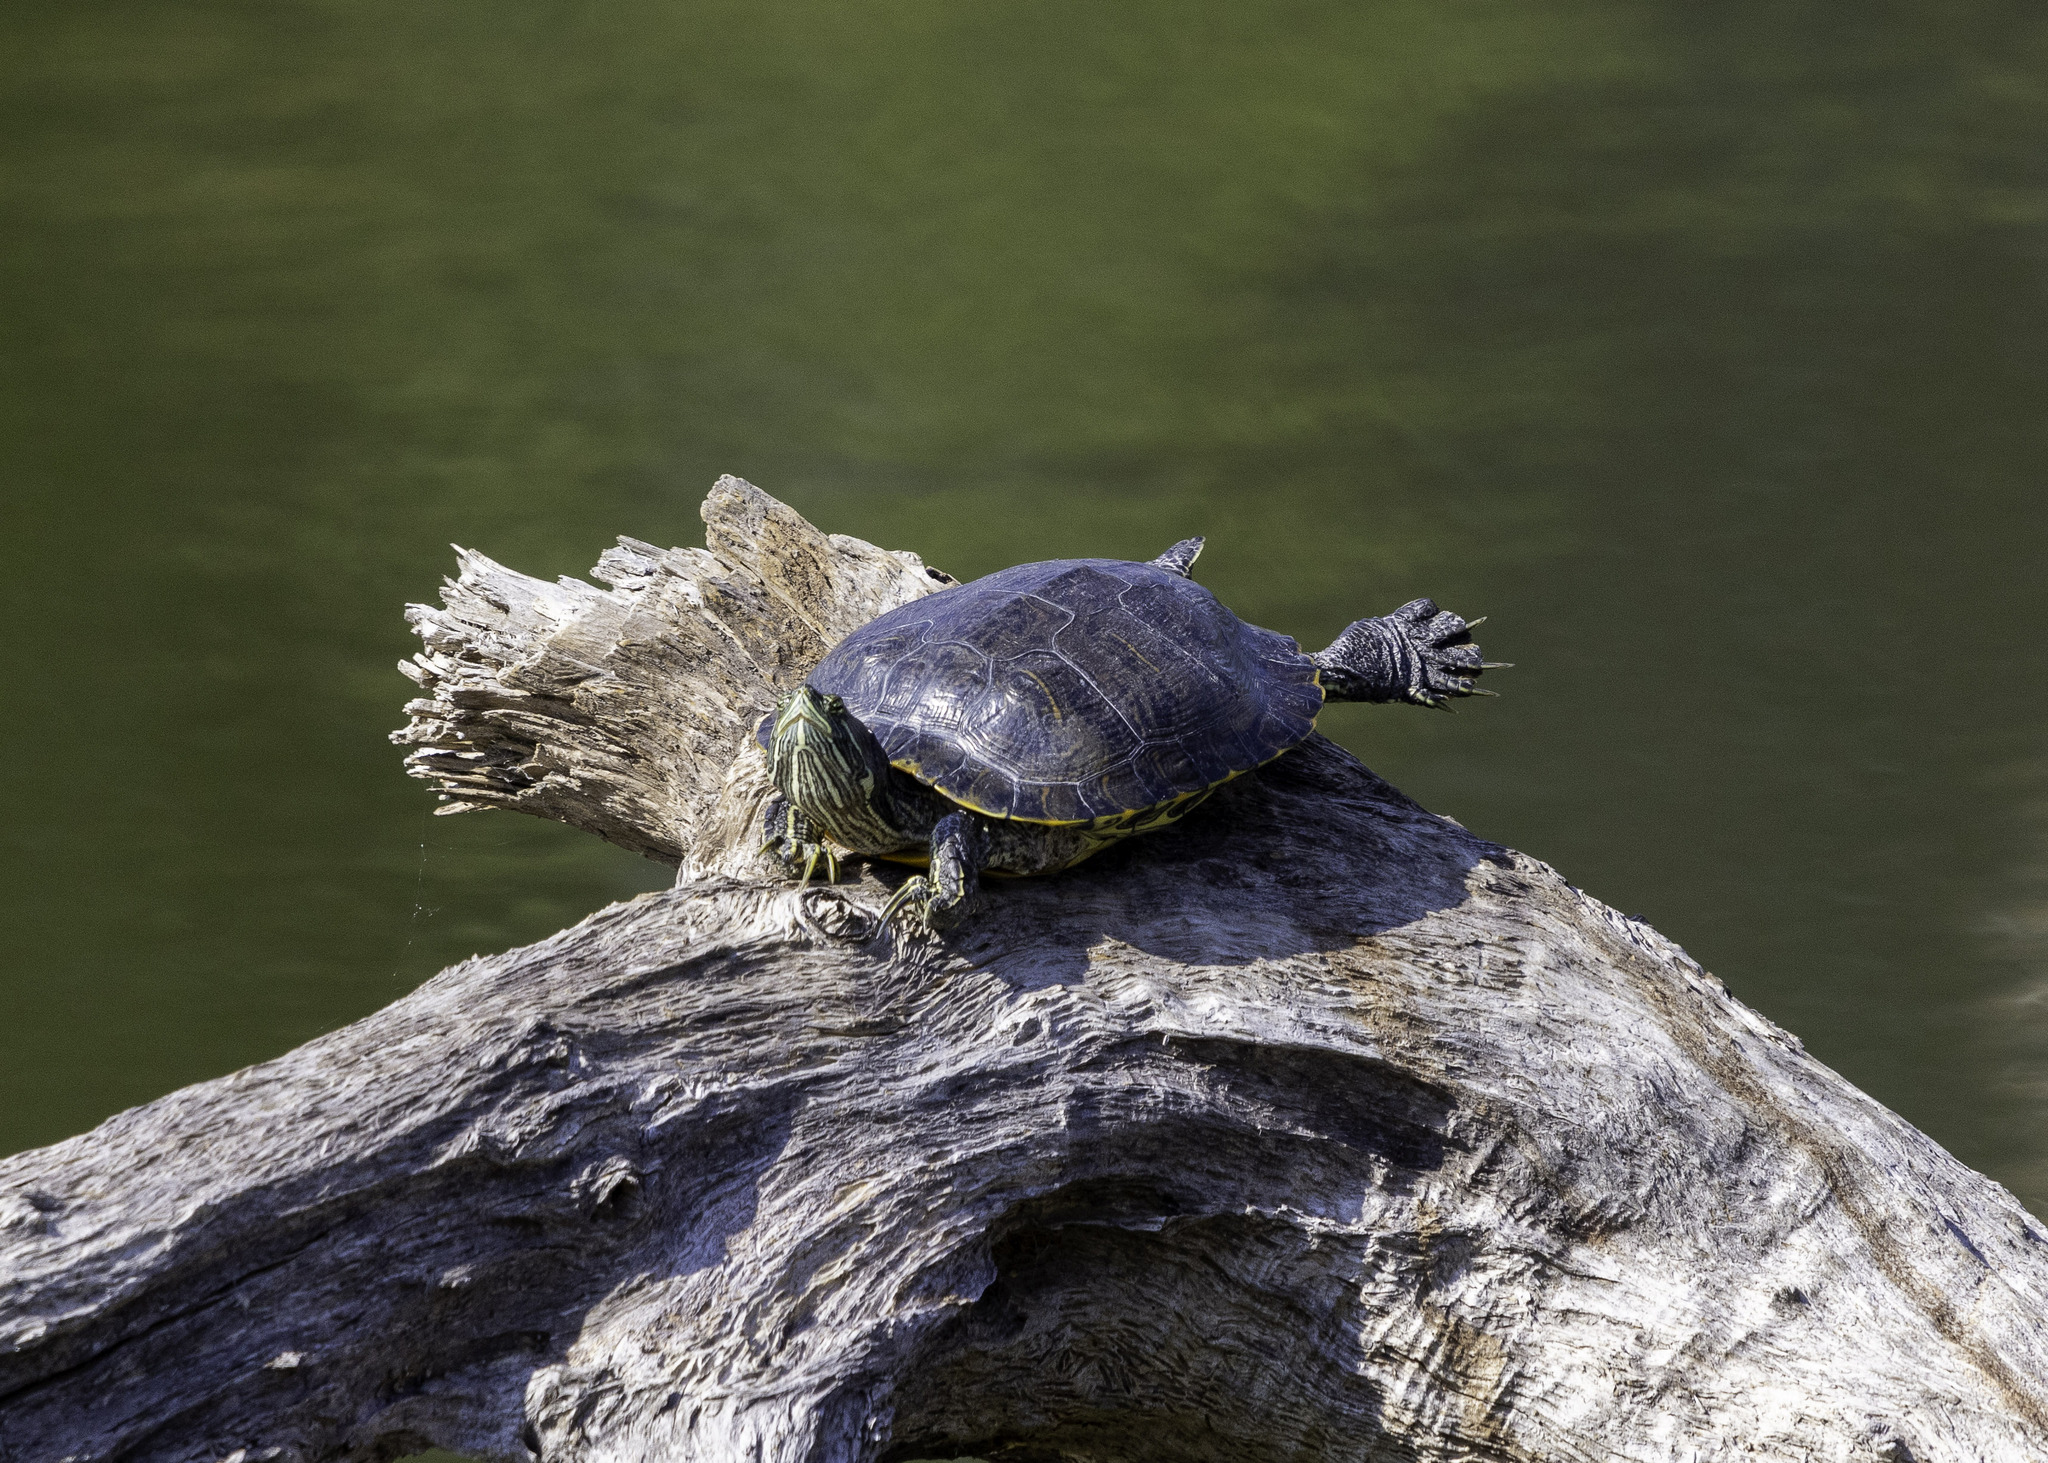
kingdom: Animalia
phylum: Chordata
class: Testudines
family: Emydidae
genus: Trachemys
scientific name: Trachemys scripta
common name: Slider
